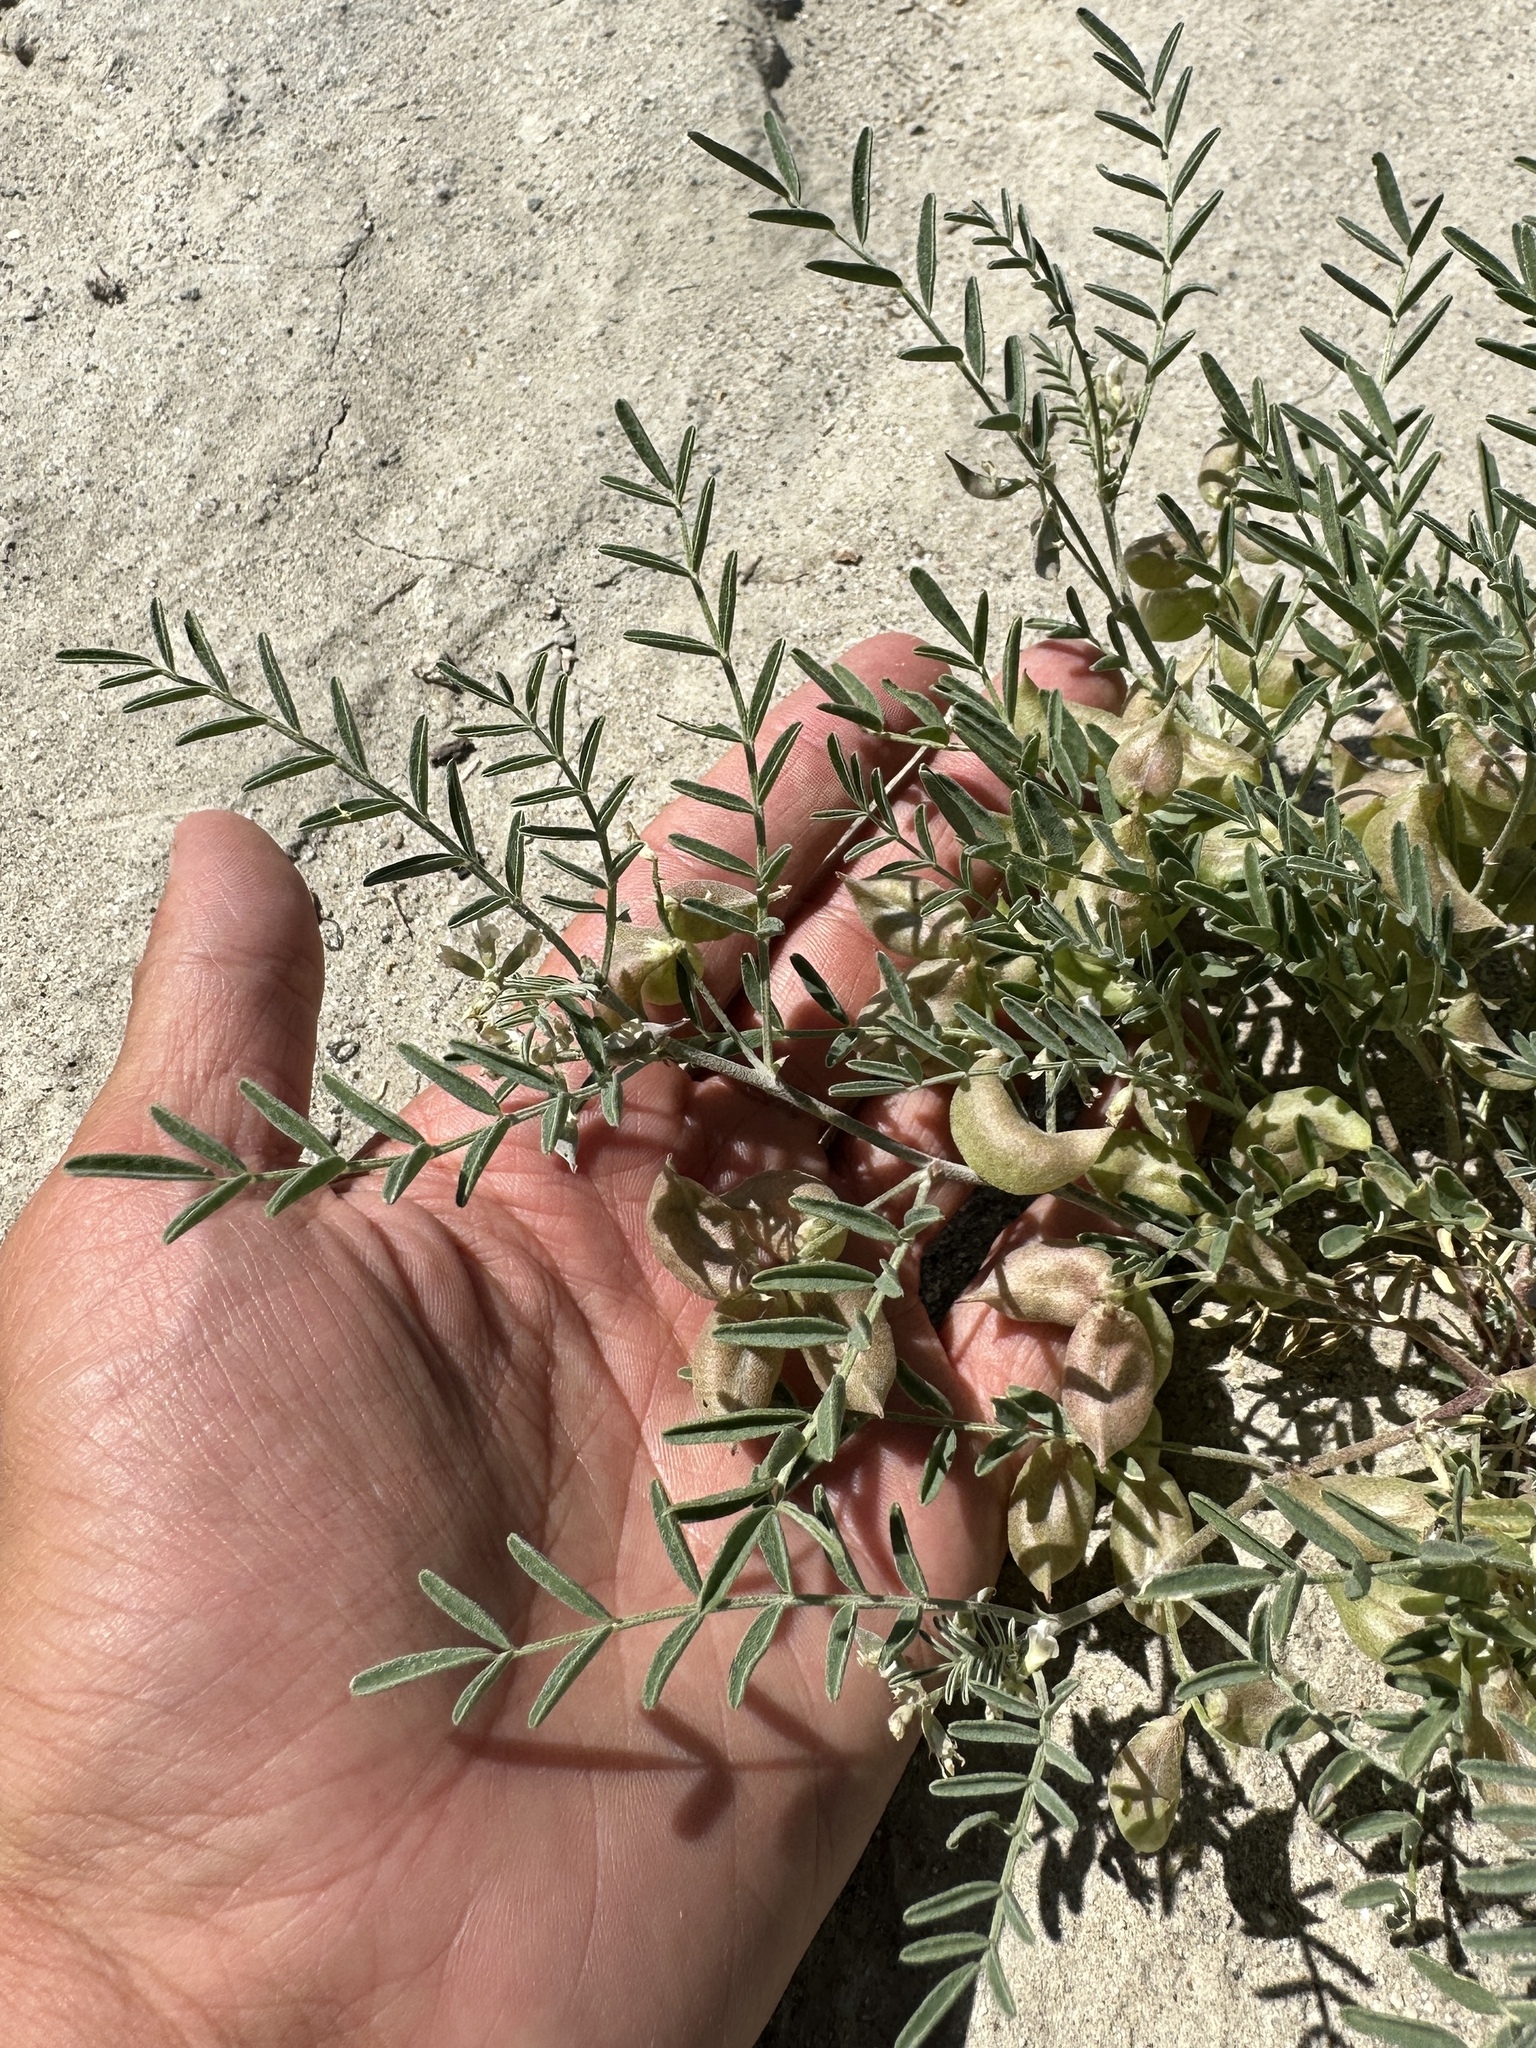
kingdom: Plantae
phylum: Tracheophyta
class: Magnoliopsida
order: Fabales
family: Fabaceae
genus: Astragalus
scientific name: Astragalus geyeri
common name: Geyer's milkvetch
